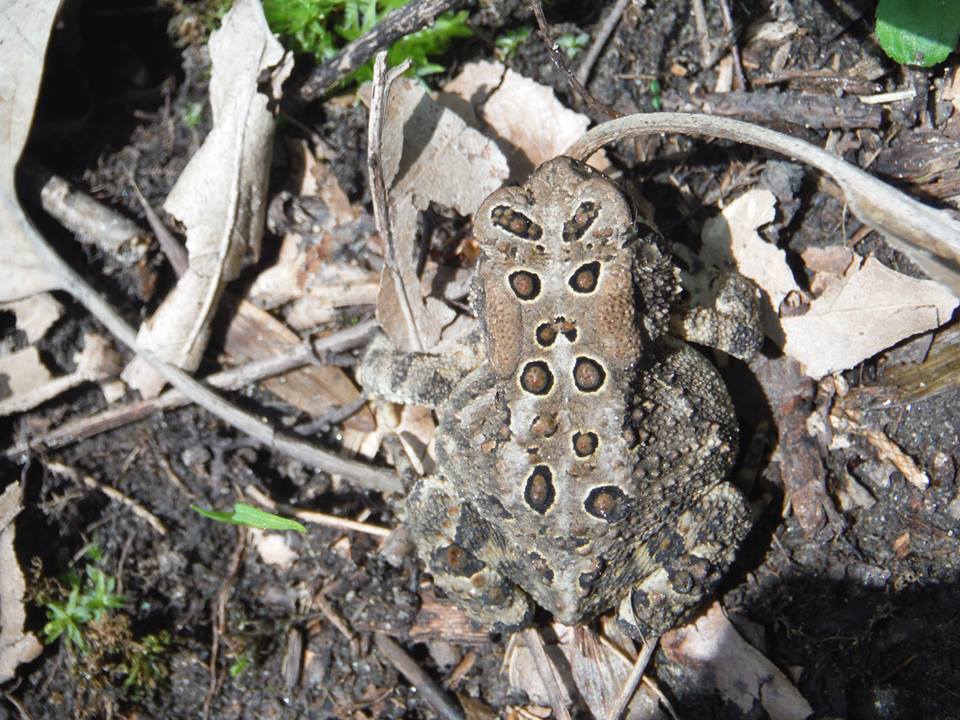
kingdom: Animalia
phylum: Chordata
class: Amphibia
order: Anura
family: Bufonidae
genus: Anaxyrus
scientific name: Anaxyrus americanus
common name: American toad
